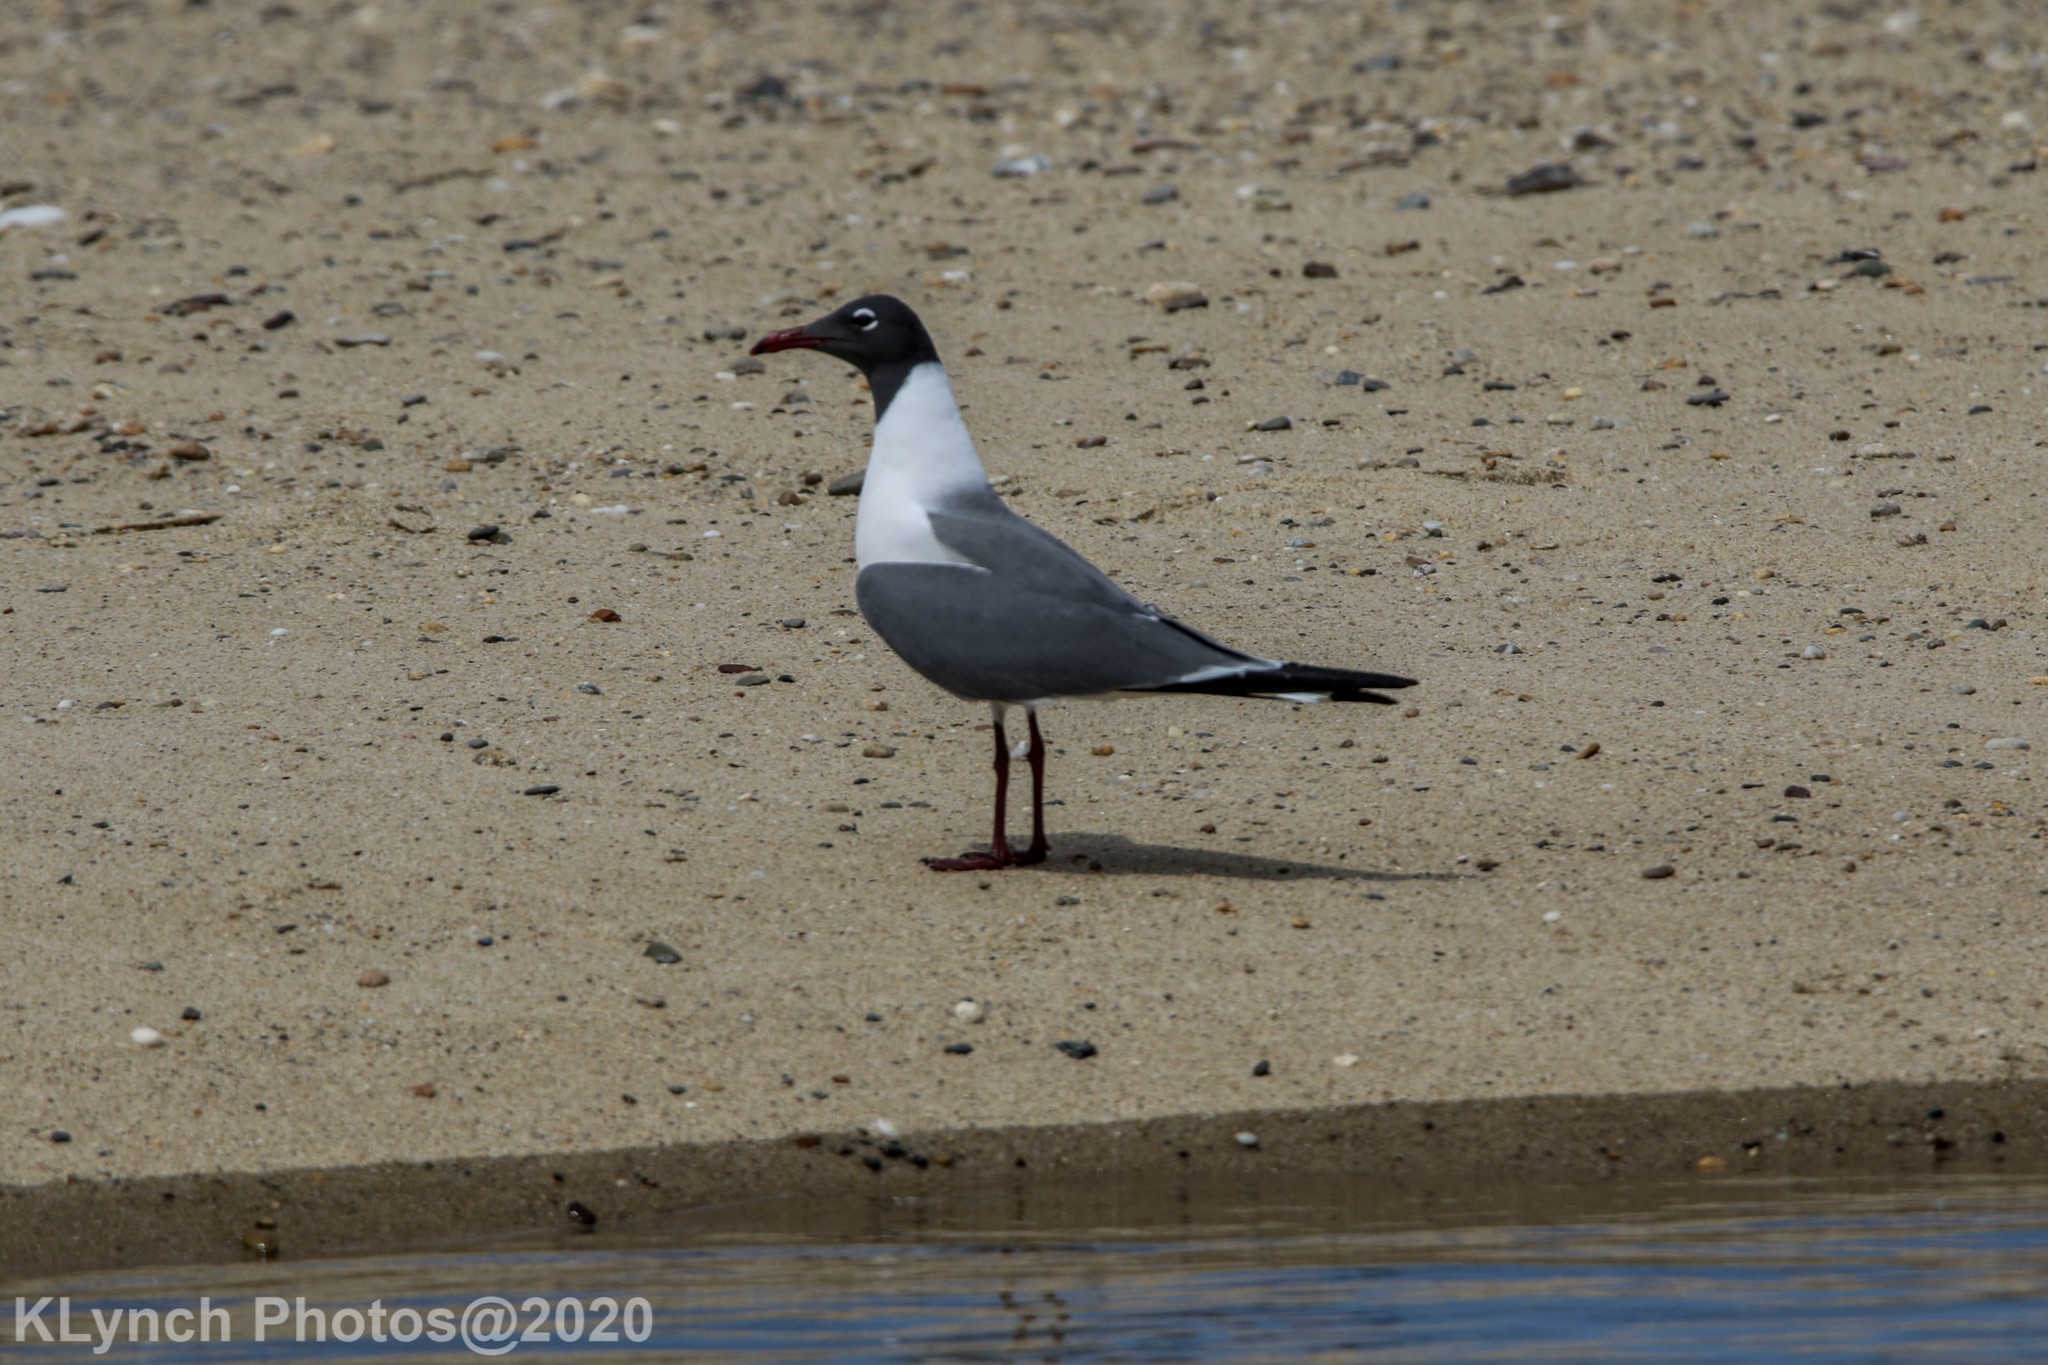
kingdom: Animalia
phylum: Chordata
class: Aves
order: Charadriiformes
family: Laridae
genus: Leucophaeus
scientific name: Leucophaeus atricilla
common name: Laughing gull
